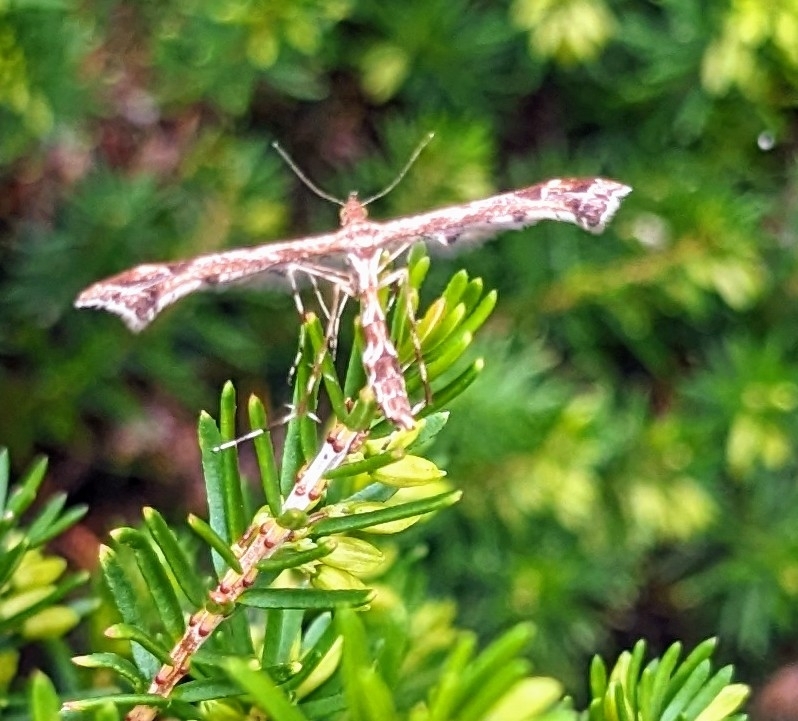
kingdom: Animalia
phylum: Arthropoda
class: Insecta
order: Lepidoptera
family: Pterophoridae
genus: Amblyptilia
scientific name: Amblyptilia acanthadactyla
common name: Beautiful plume
